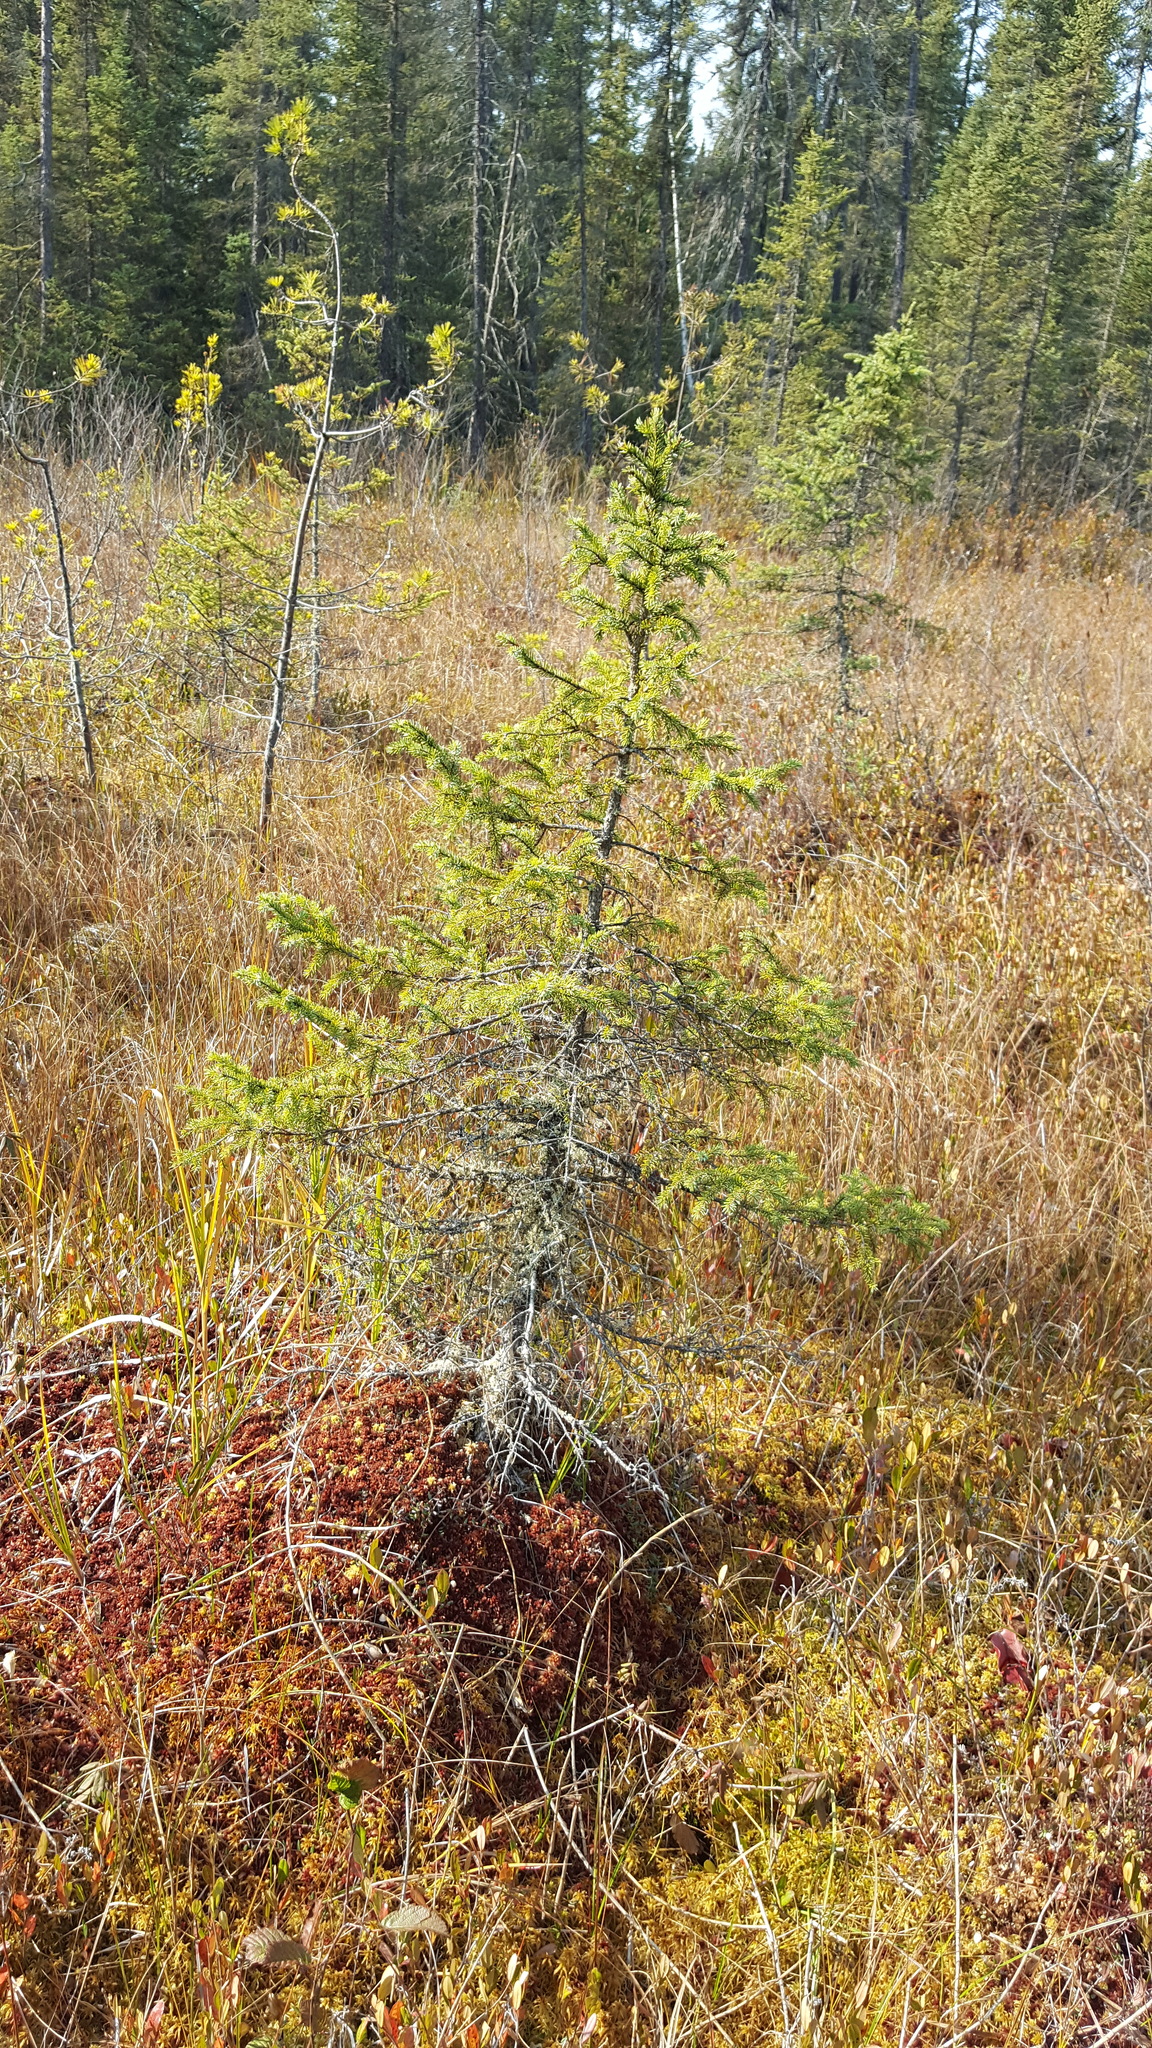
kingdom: Plantae
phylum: Tracheophyta
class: Pinopsida
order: Pinales
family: Pinaceae
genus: Picea
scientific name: Picea mariana
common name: Black spruce
